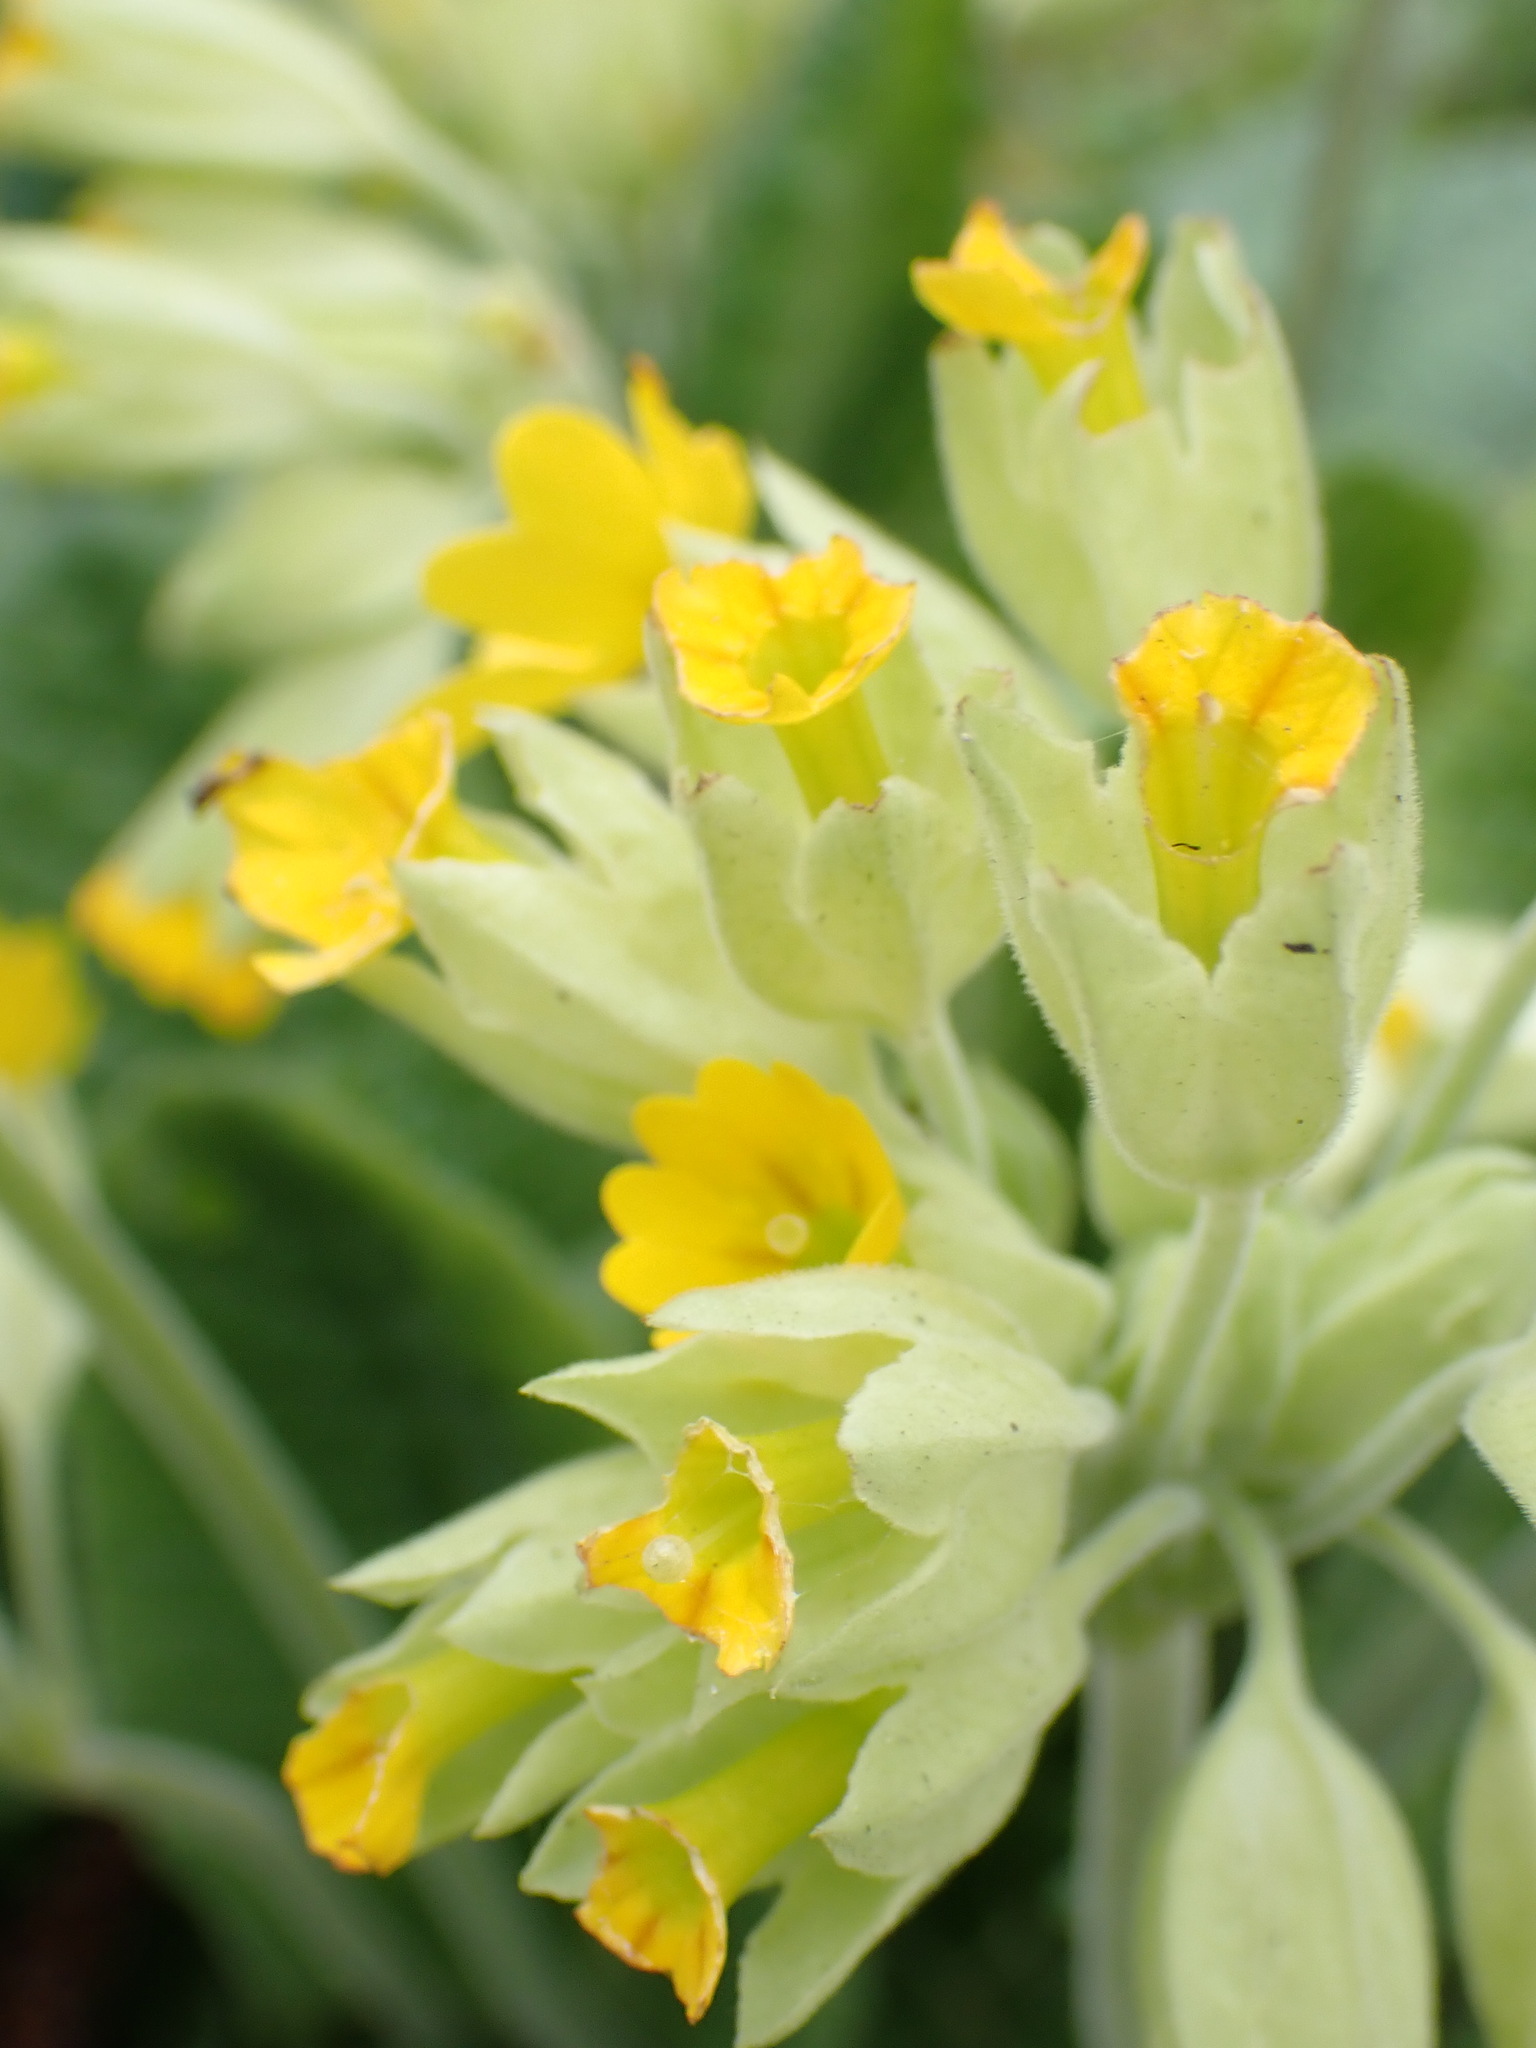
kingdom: Plantae
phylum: Tracheophyta
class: Magnoliopsida
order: Ericales
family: Primulaceae
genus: Primula
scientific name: Primula veris
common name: Cowslip
